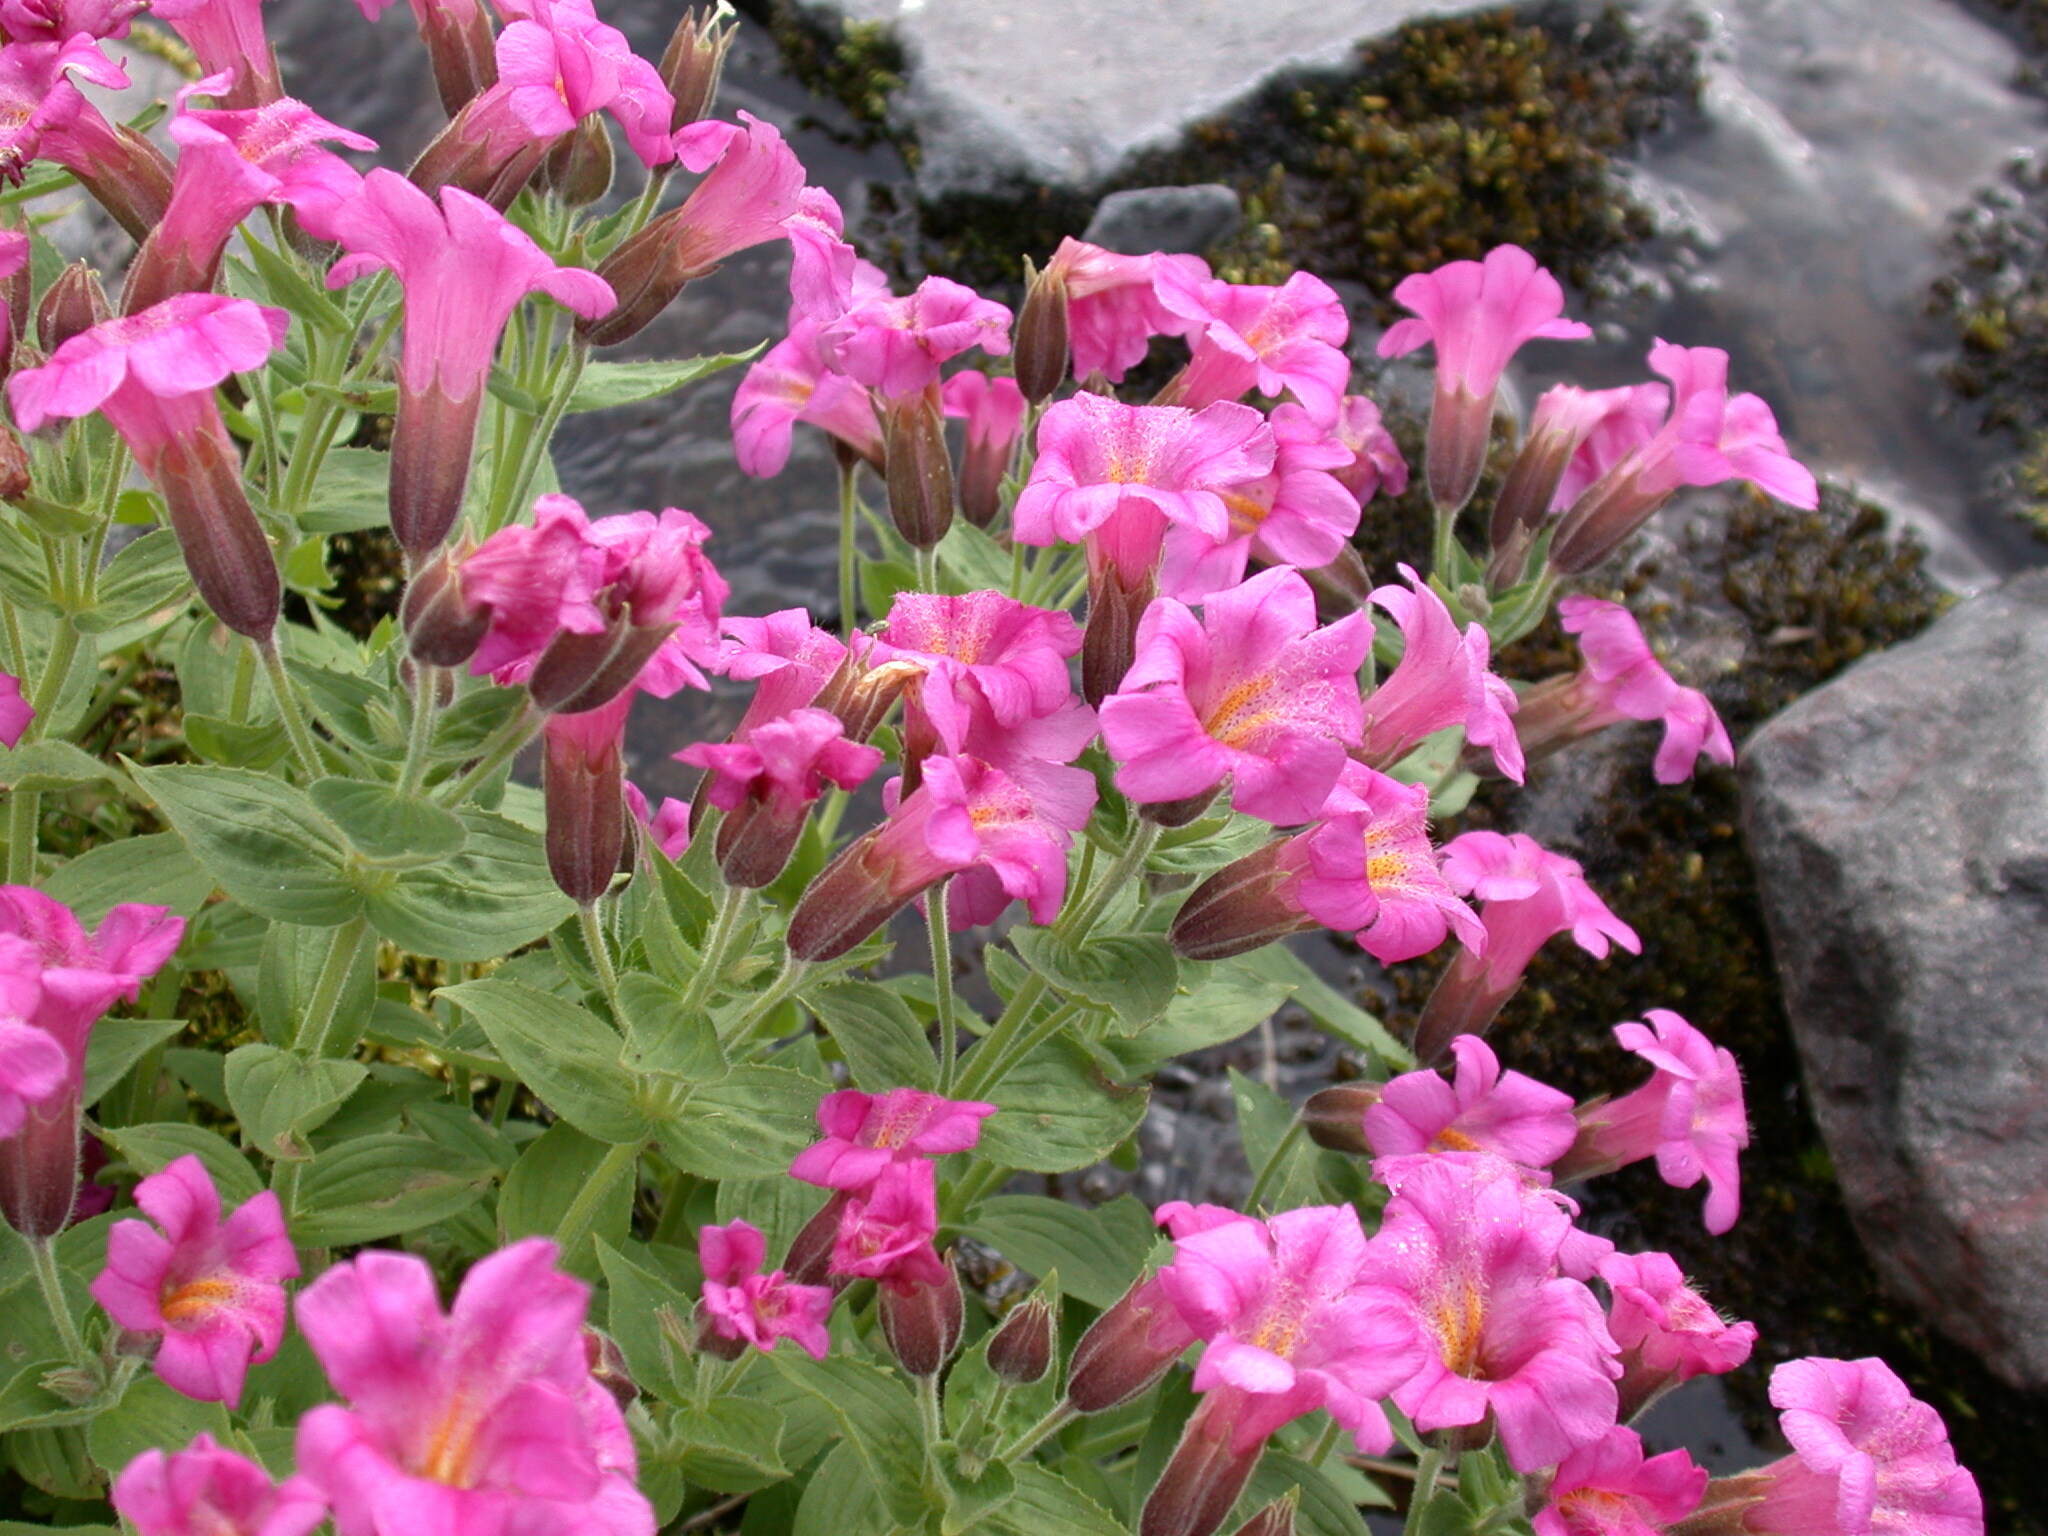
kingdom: Plantae
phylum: Tracheophyta
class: Magnoliopsida
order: Lamiales
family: Phrymaceae
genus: Erythranthe
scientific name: Erythranthe lewisii
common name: Lewis's monkey-flower
